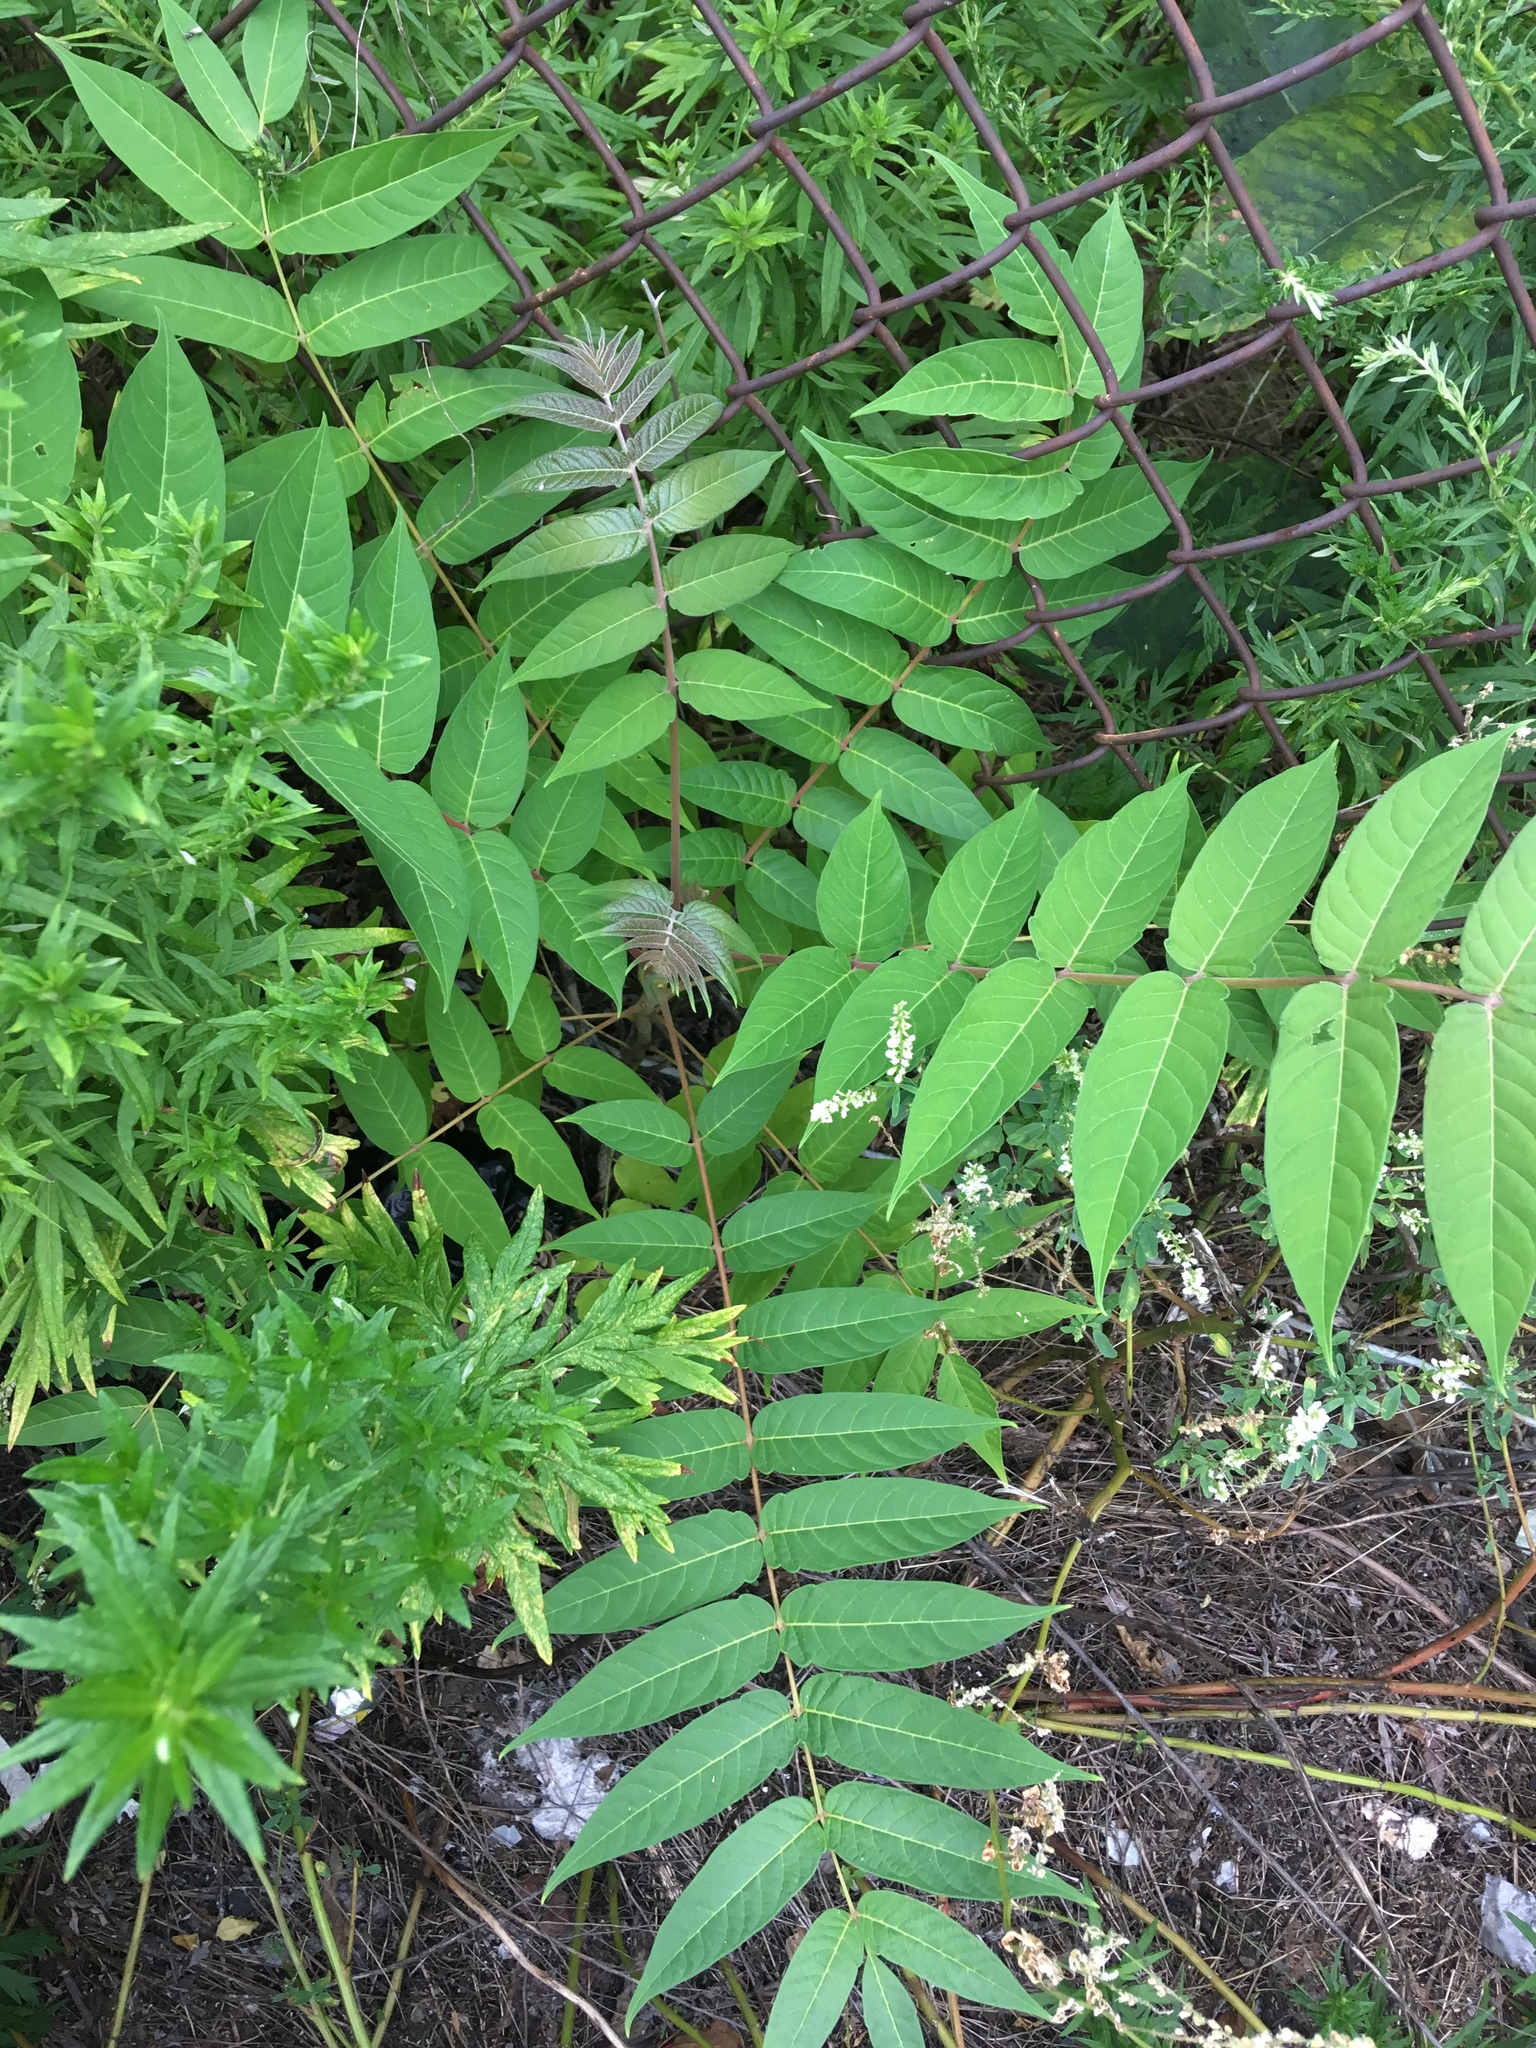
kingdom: Plantae
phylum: Tracheophyta
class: Magnoliopsida
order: Sapindales
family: Simaroubaceae
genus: Ailanthus
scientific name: Ailanthus altissima
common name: Tree-of-heaven
